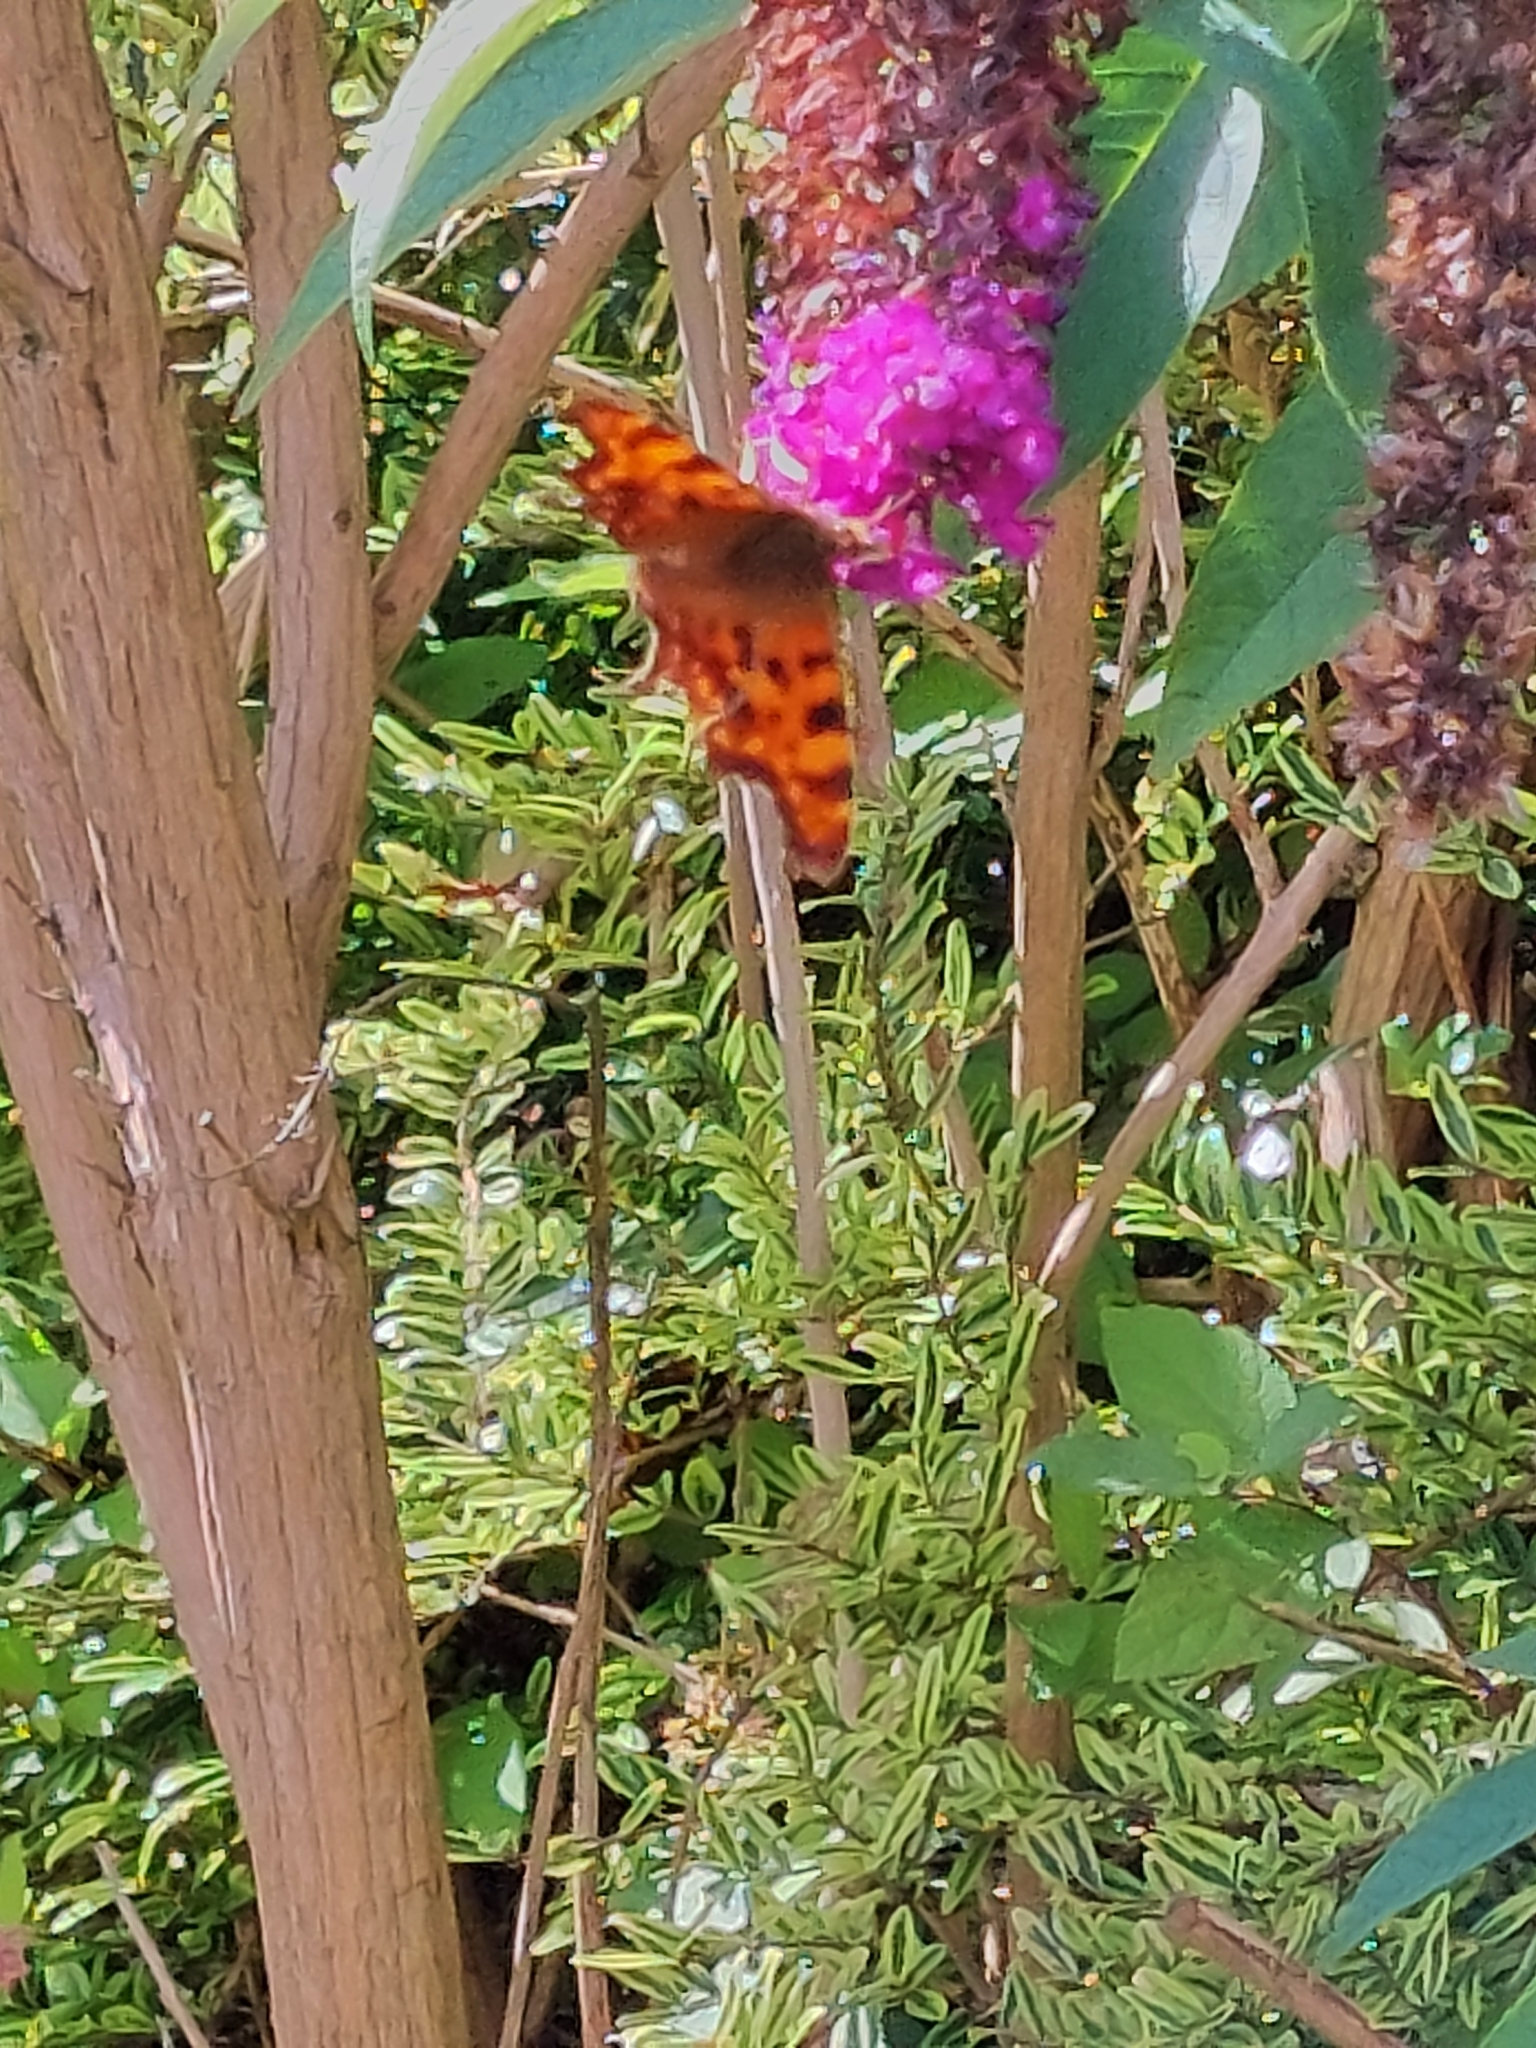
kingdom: Animalia
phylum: Arthropoda
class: Insecta
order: Lepidoptera
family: Nymphalidae
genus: Polygonia
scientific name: Polygonia c-album
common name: Comma
